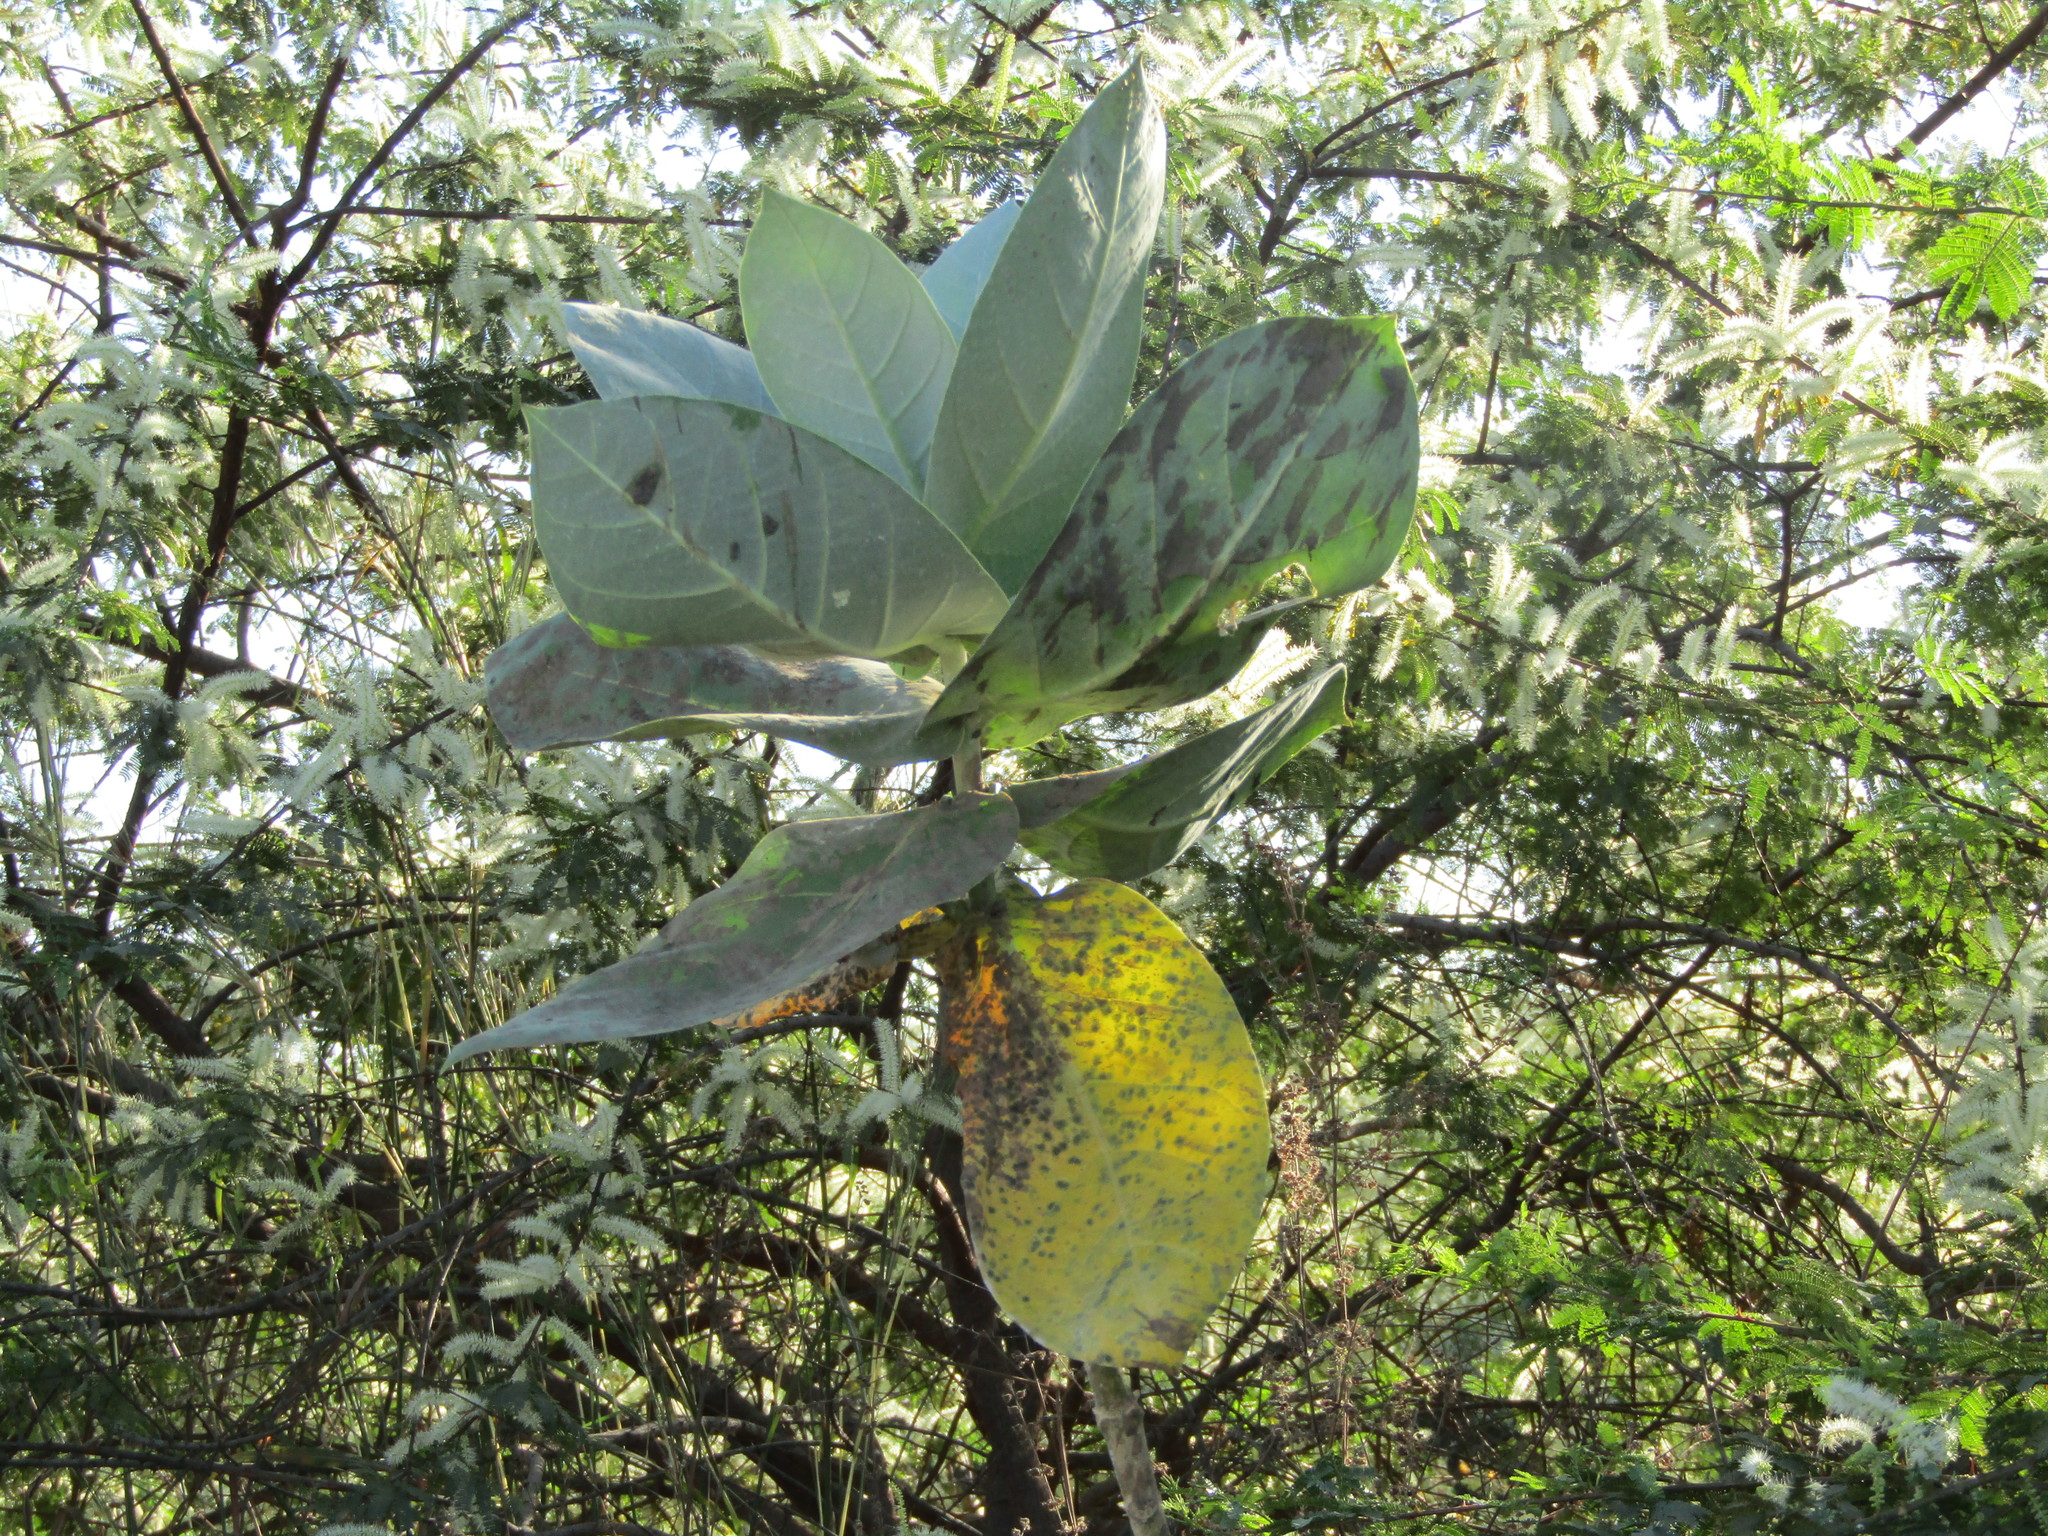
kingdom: Plantae
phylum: Tracheophyta
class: Magnoliopsida
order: Gentianales
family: Apocynaceae
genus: Calotropis
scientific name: Calotropis procera
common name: Roostertree
